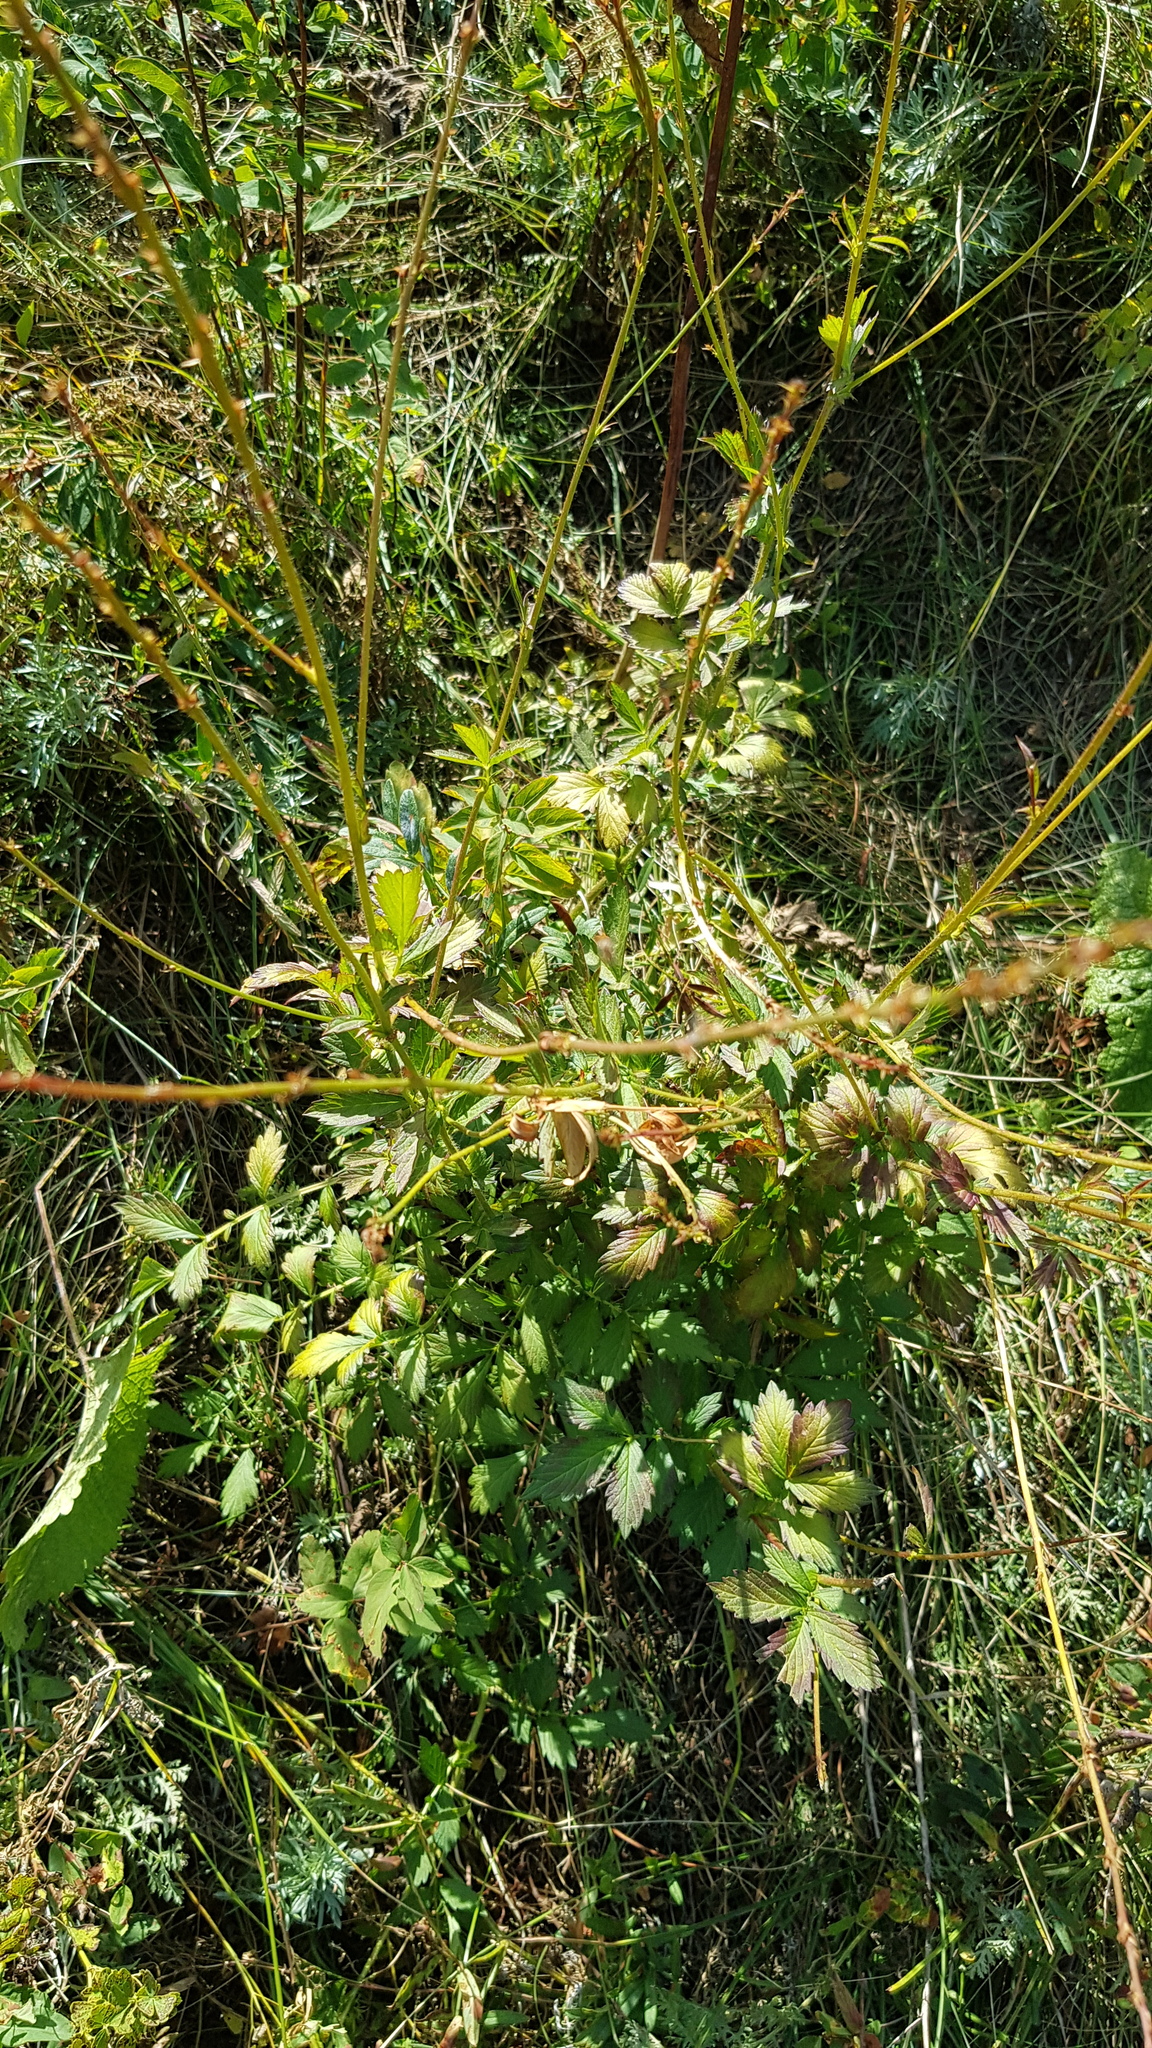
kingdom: Plantae
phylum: Tracheophyta
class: Magnoliopsida
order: Rosales
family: Rosaceae
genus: Agrimonia
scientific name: Agrimonia pilosa
